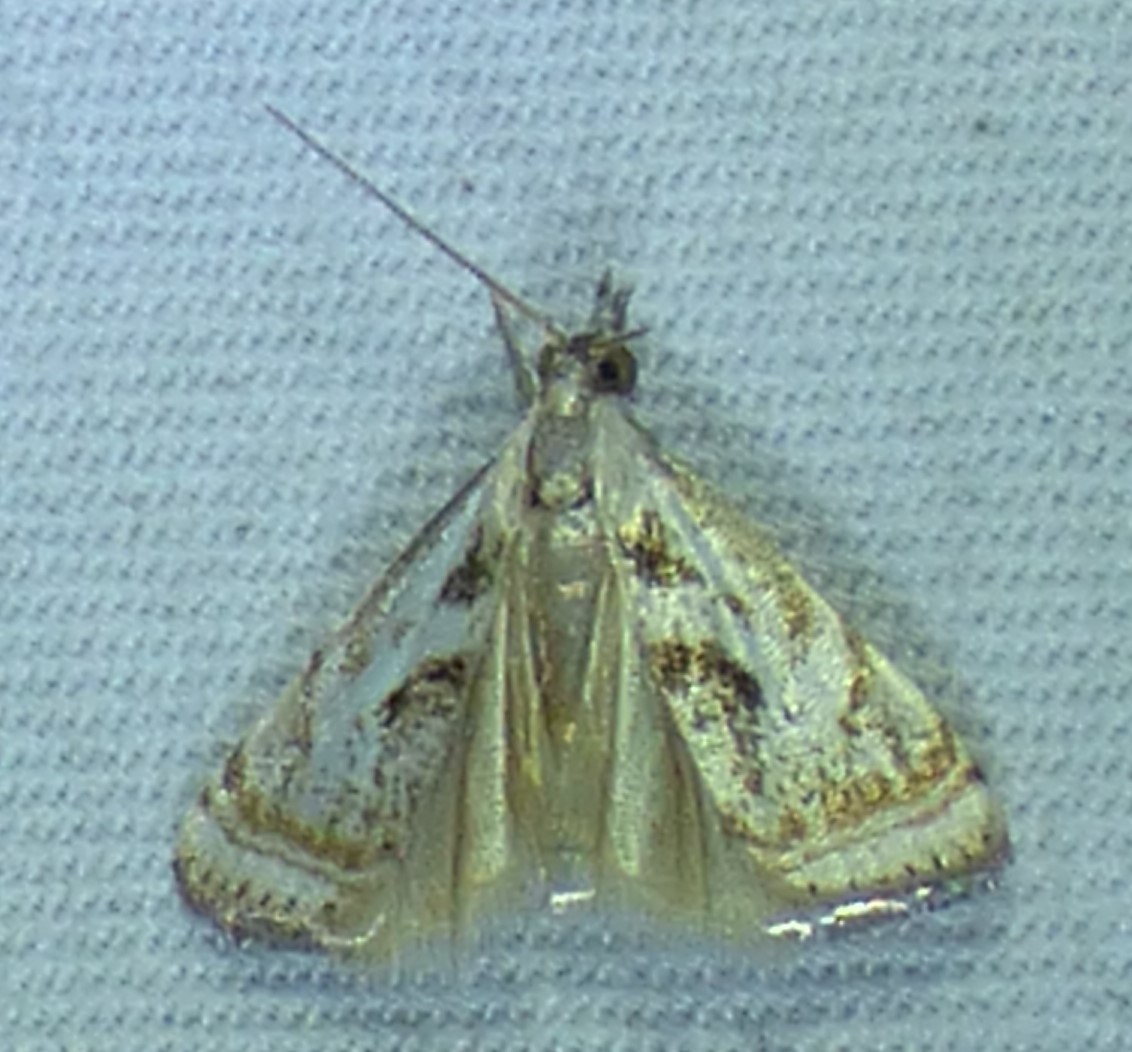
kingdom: Animalia
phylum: Arthropoda
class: Insecta
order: Lepidoptera
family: Crambidae
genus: Microcrambus
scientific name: Microcrambus elegans
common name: Elegant grass-veneer
